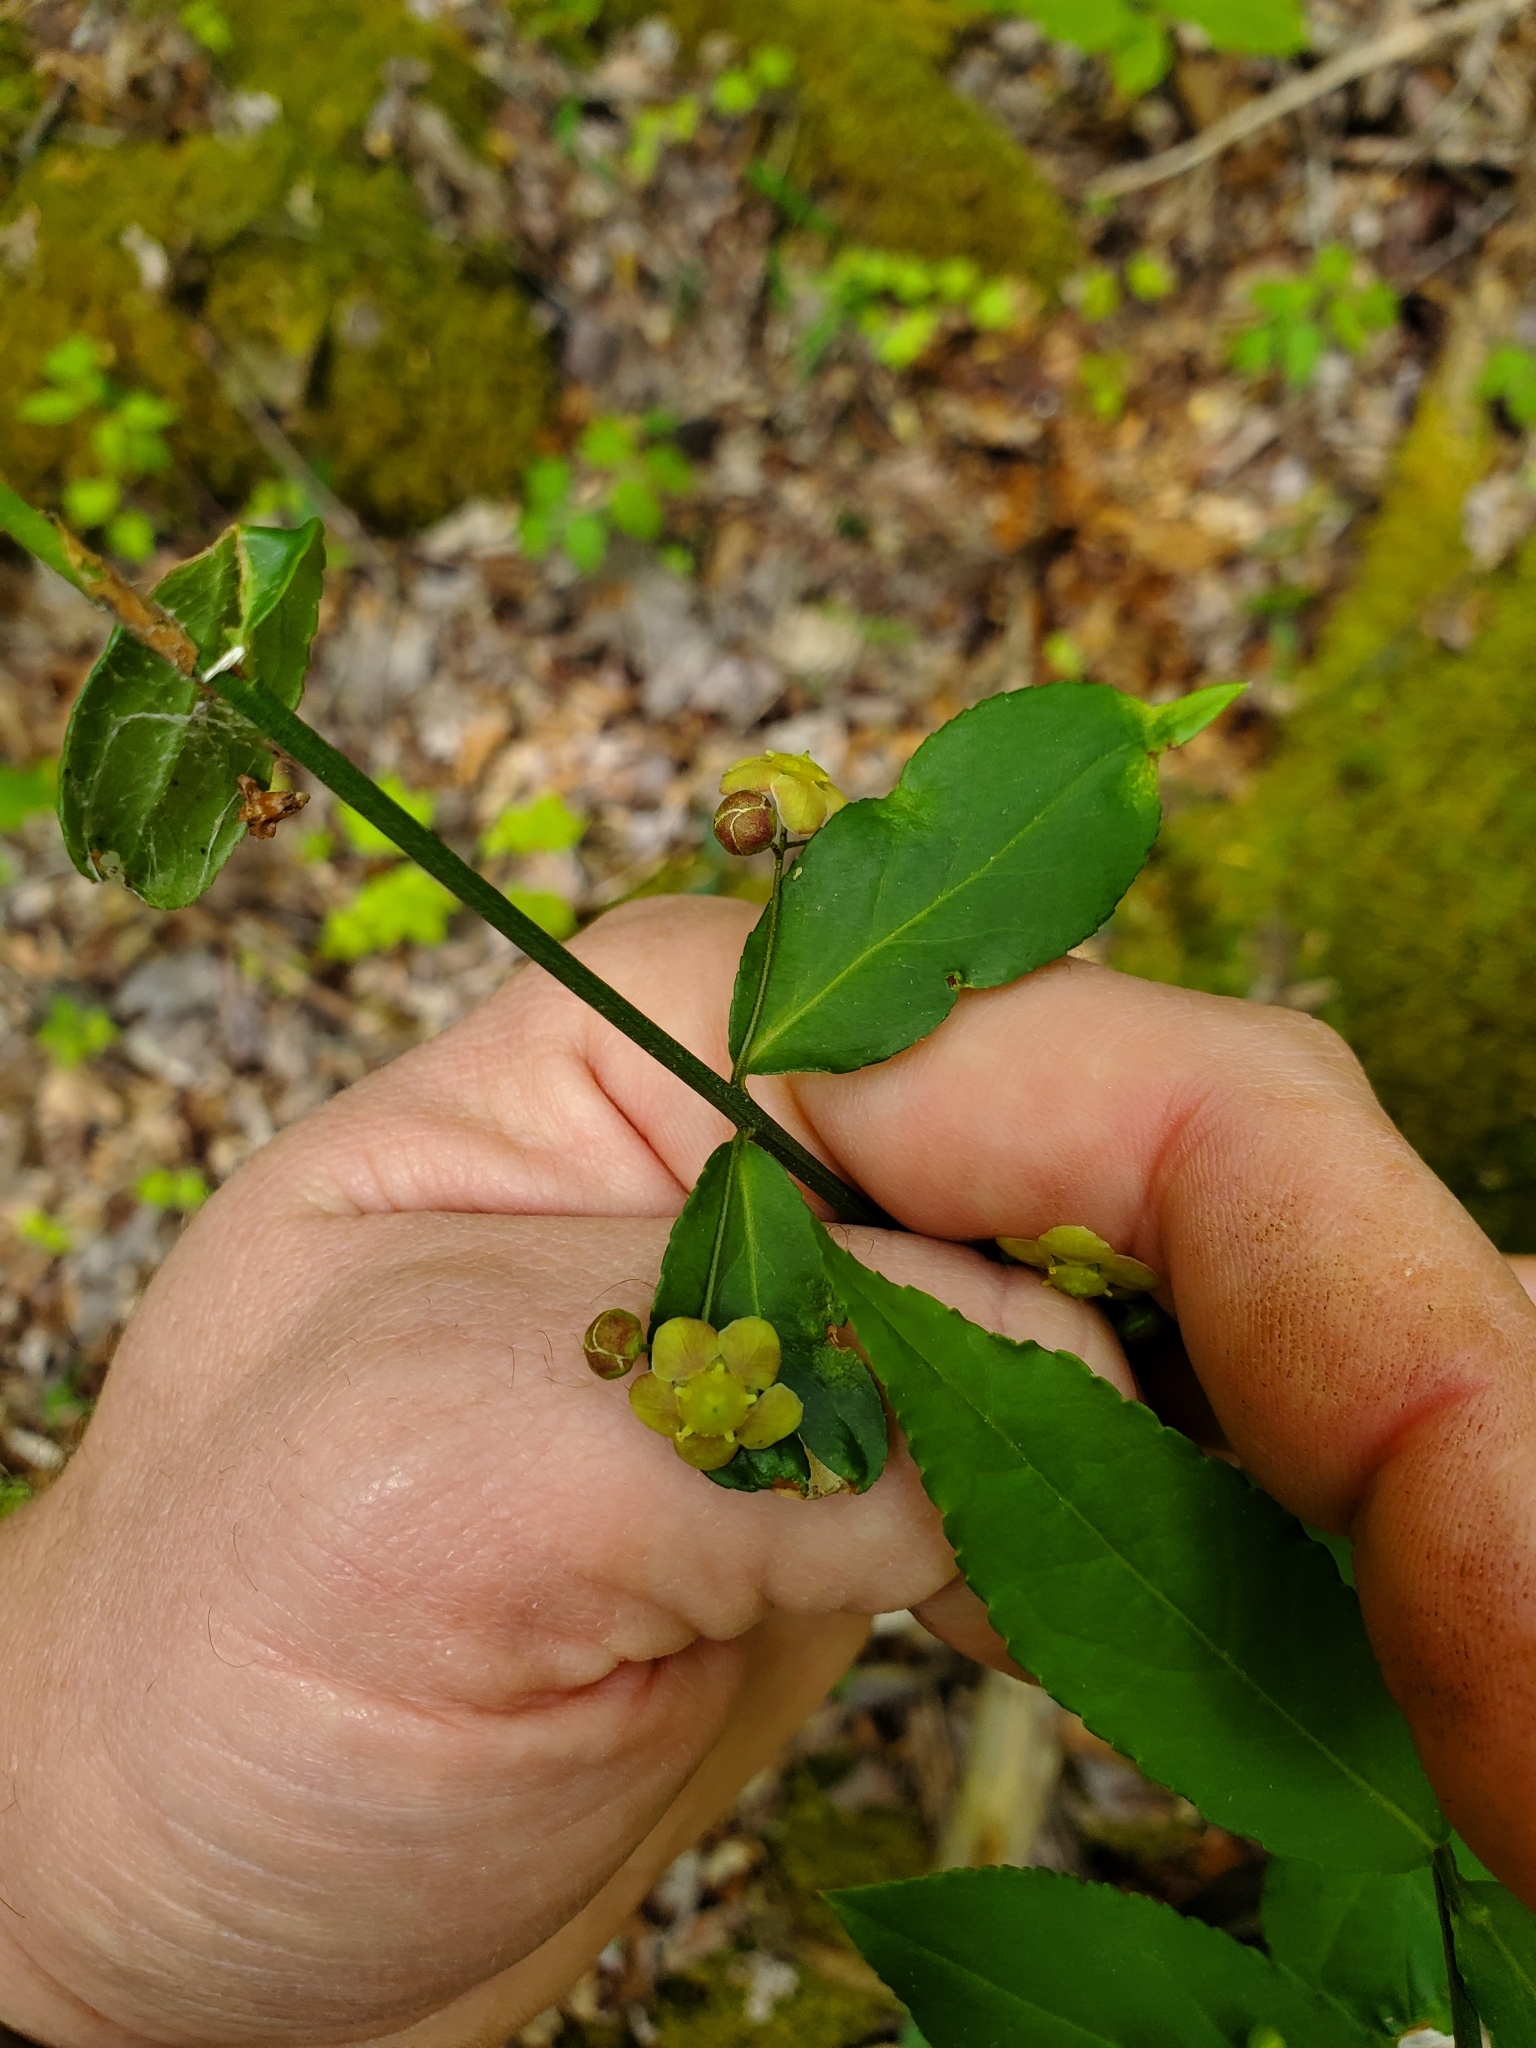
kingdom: Plantae
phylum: Tracheophyta
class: Magnoliopsida
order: Celastrales
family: Celastraceae
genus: Euonymus
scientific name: Euonymus americanus
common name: Bursting-heart
